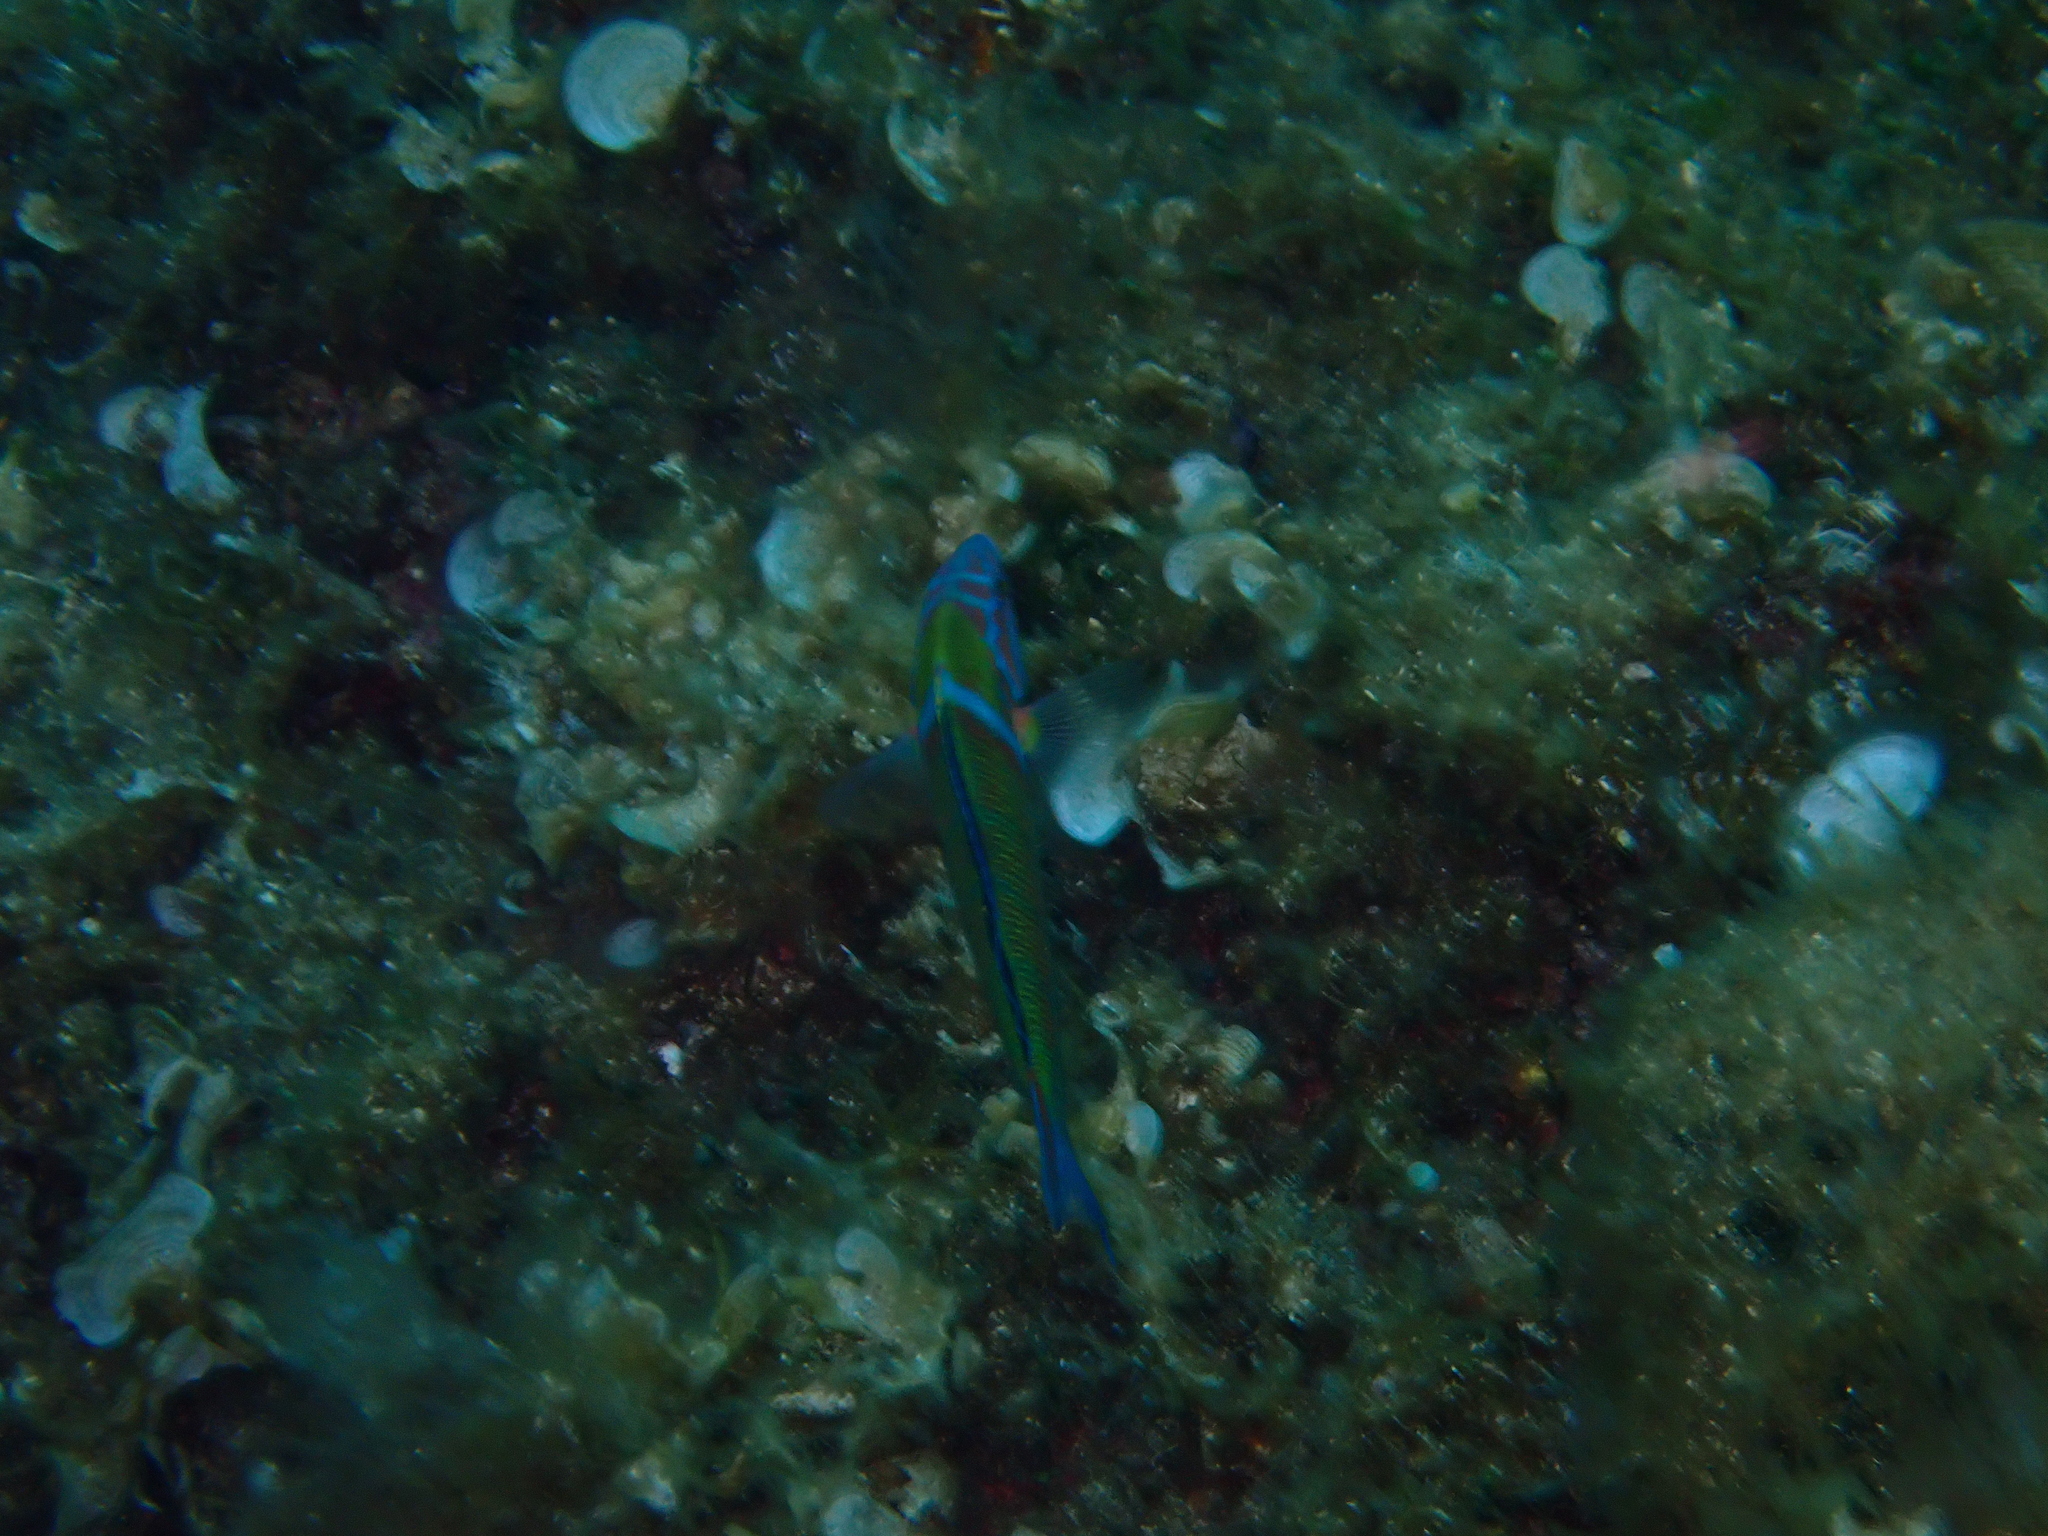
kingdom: Animalia
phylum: Chordata
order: Perciformes
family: Labridae
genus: Thalassoma
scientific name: Thalassoma pavo
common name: Ornate wrasse
